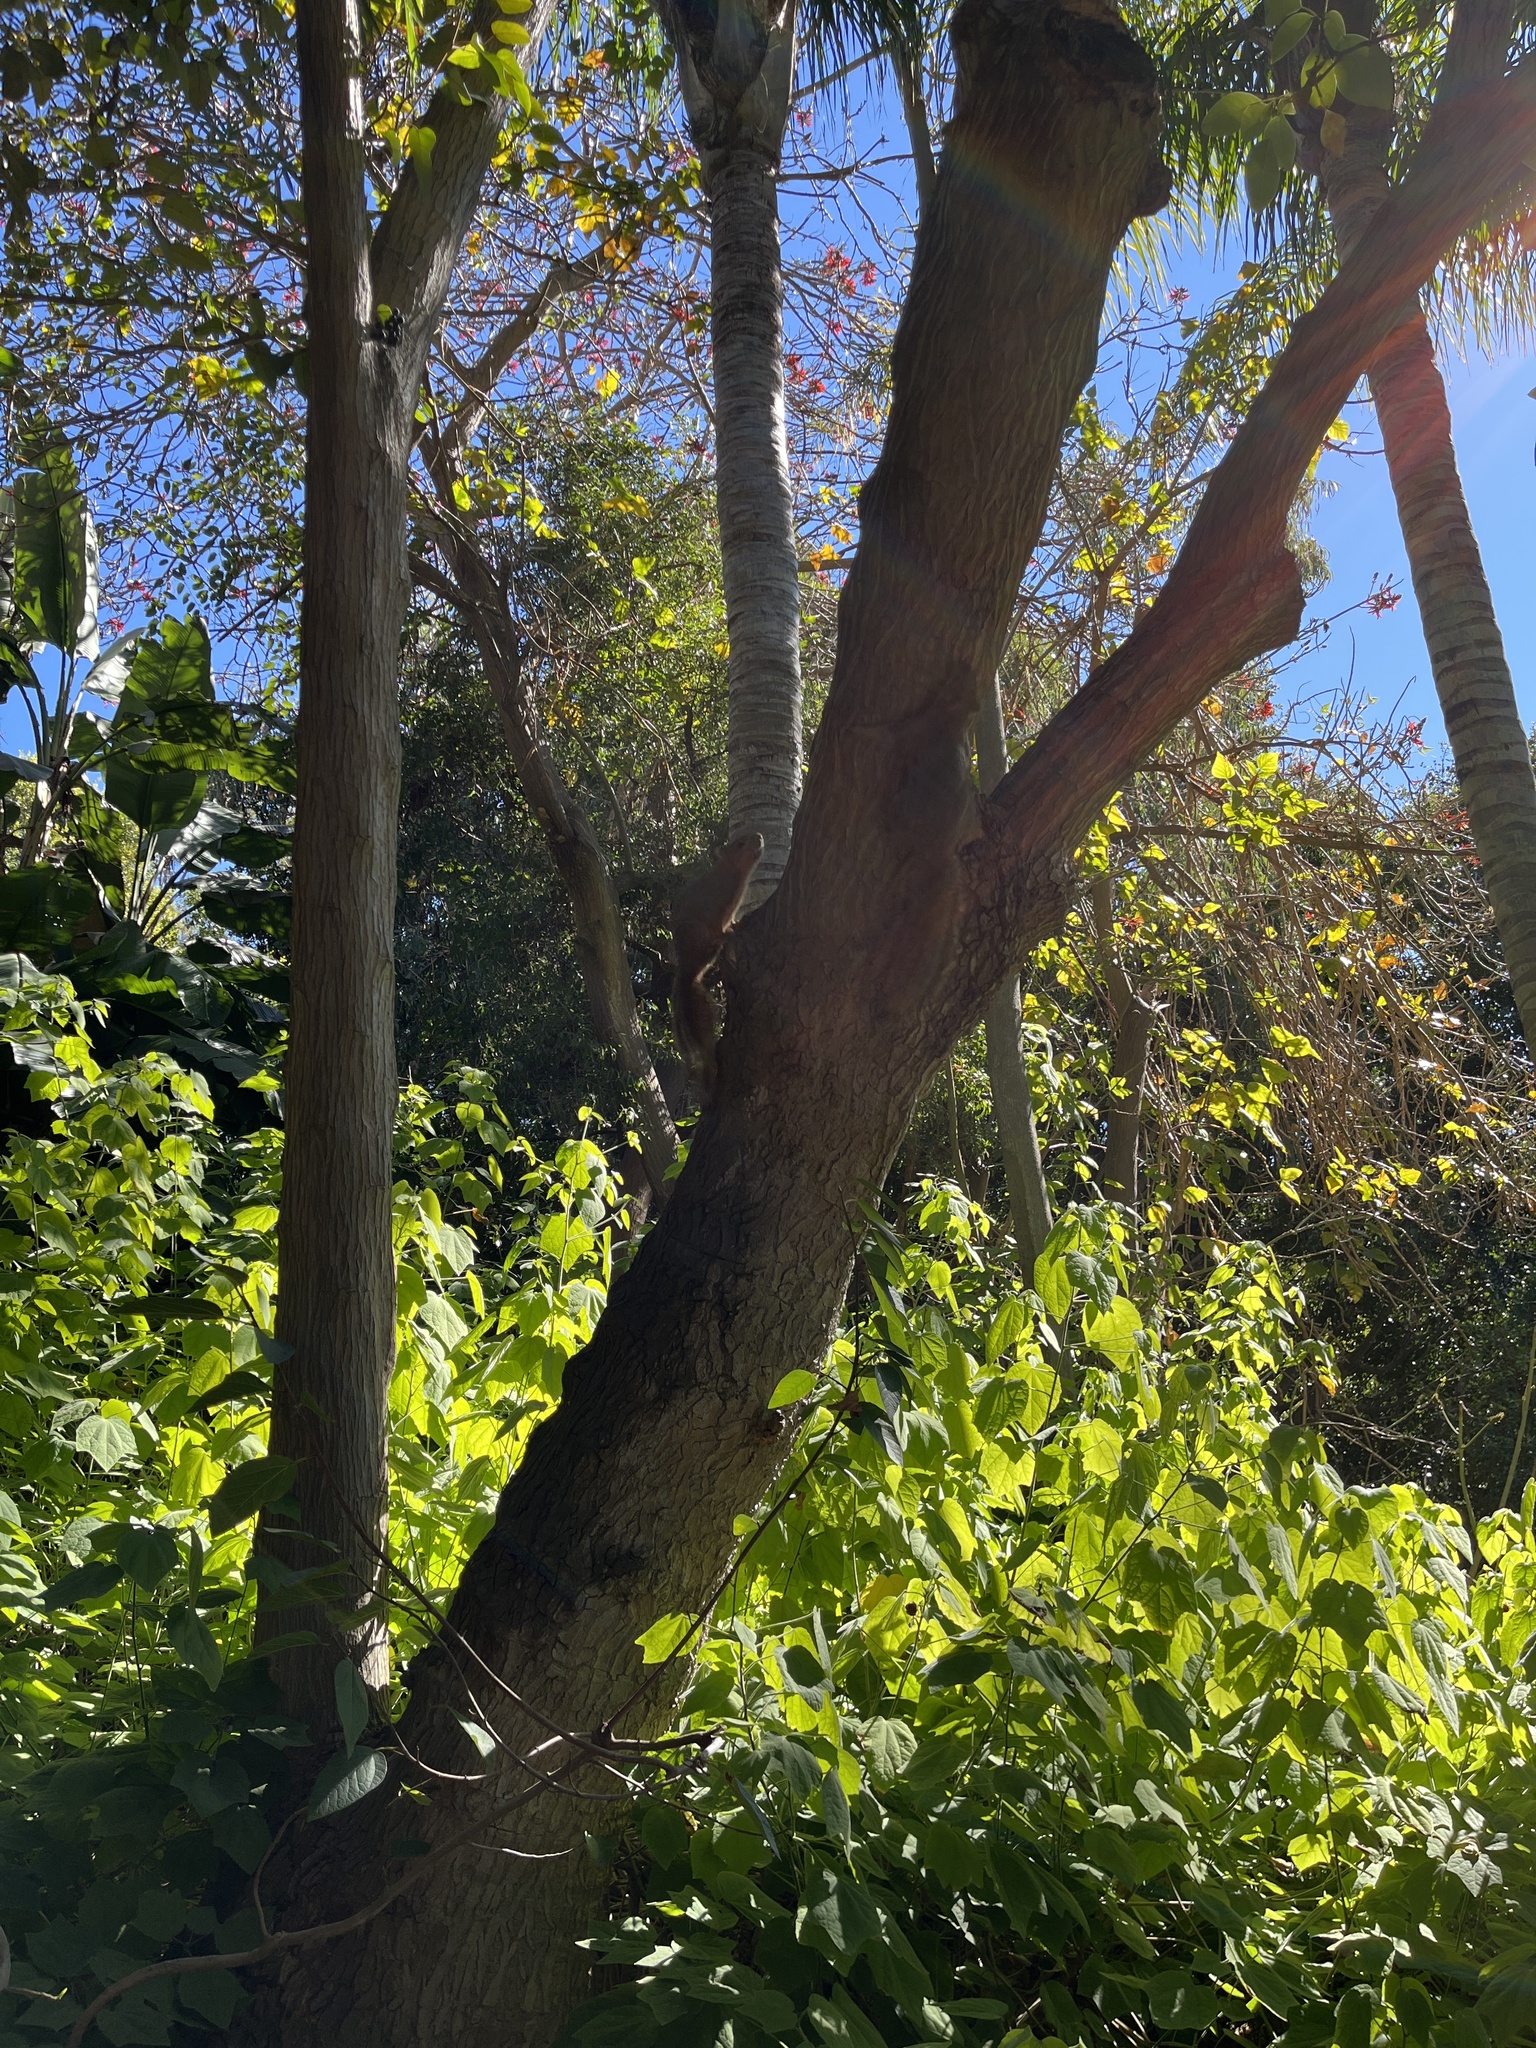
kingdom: Animalia
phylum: Chordata
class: Mammalia
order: Rodentia
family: Sciuridae
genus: Sciurus
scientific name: Sciurus niger
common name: Fox squirrel
